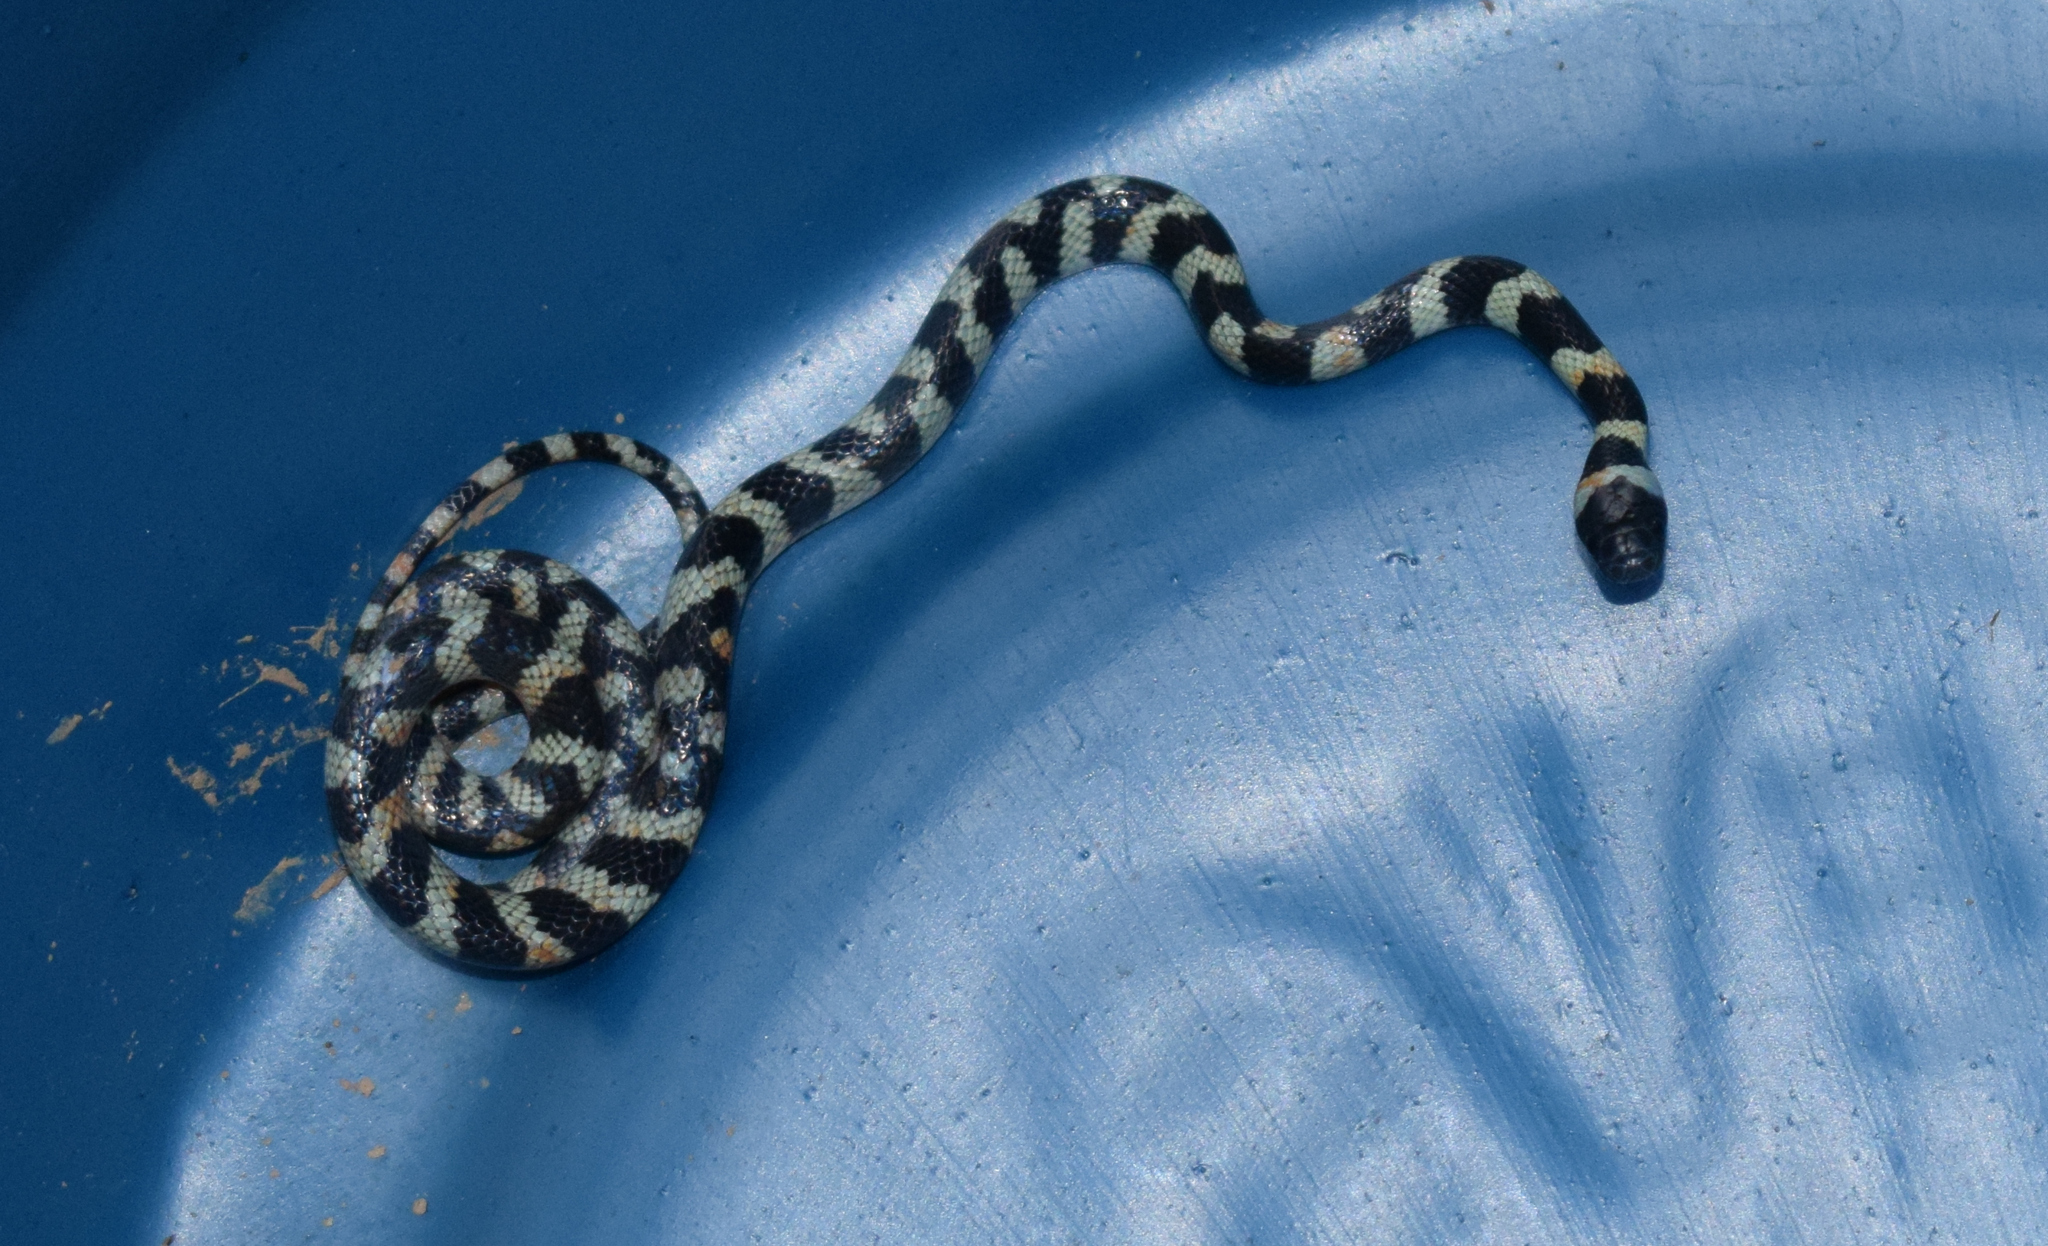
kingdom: Animalia
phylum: Chordata
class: Squamata
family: Colubridae
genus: Oxyrhopus
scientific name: Oxyrhopus clathratus
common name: Duméril's false coral snake
